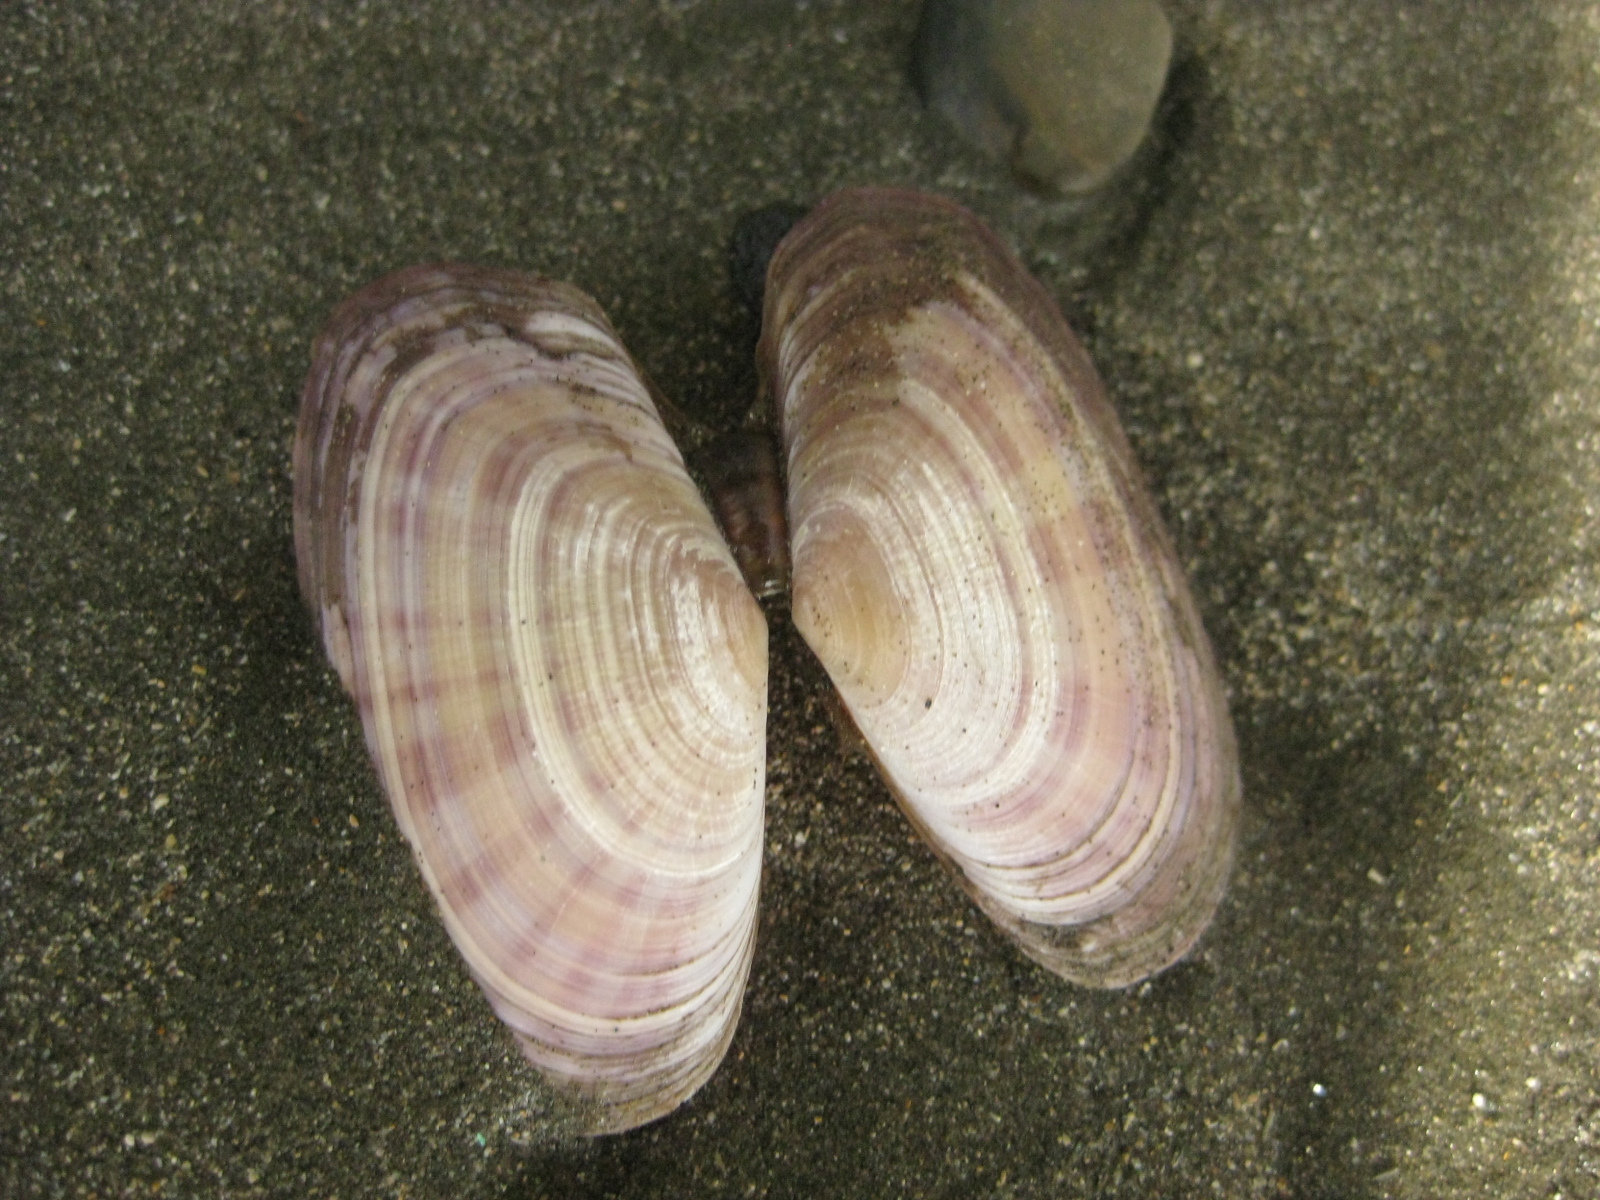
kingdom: Animalia
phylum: Mollusca
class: Bivalvia
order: Cardiida
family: Psammobiidae
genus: Gari
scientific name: Gari stangeri
